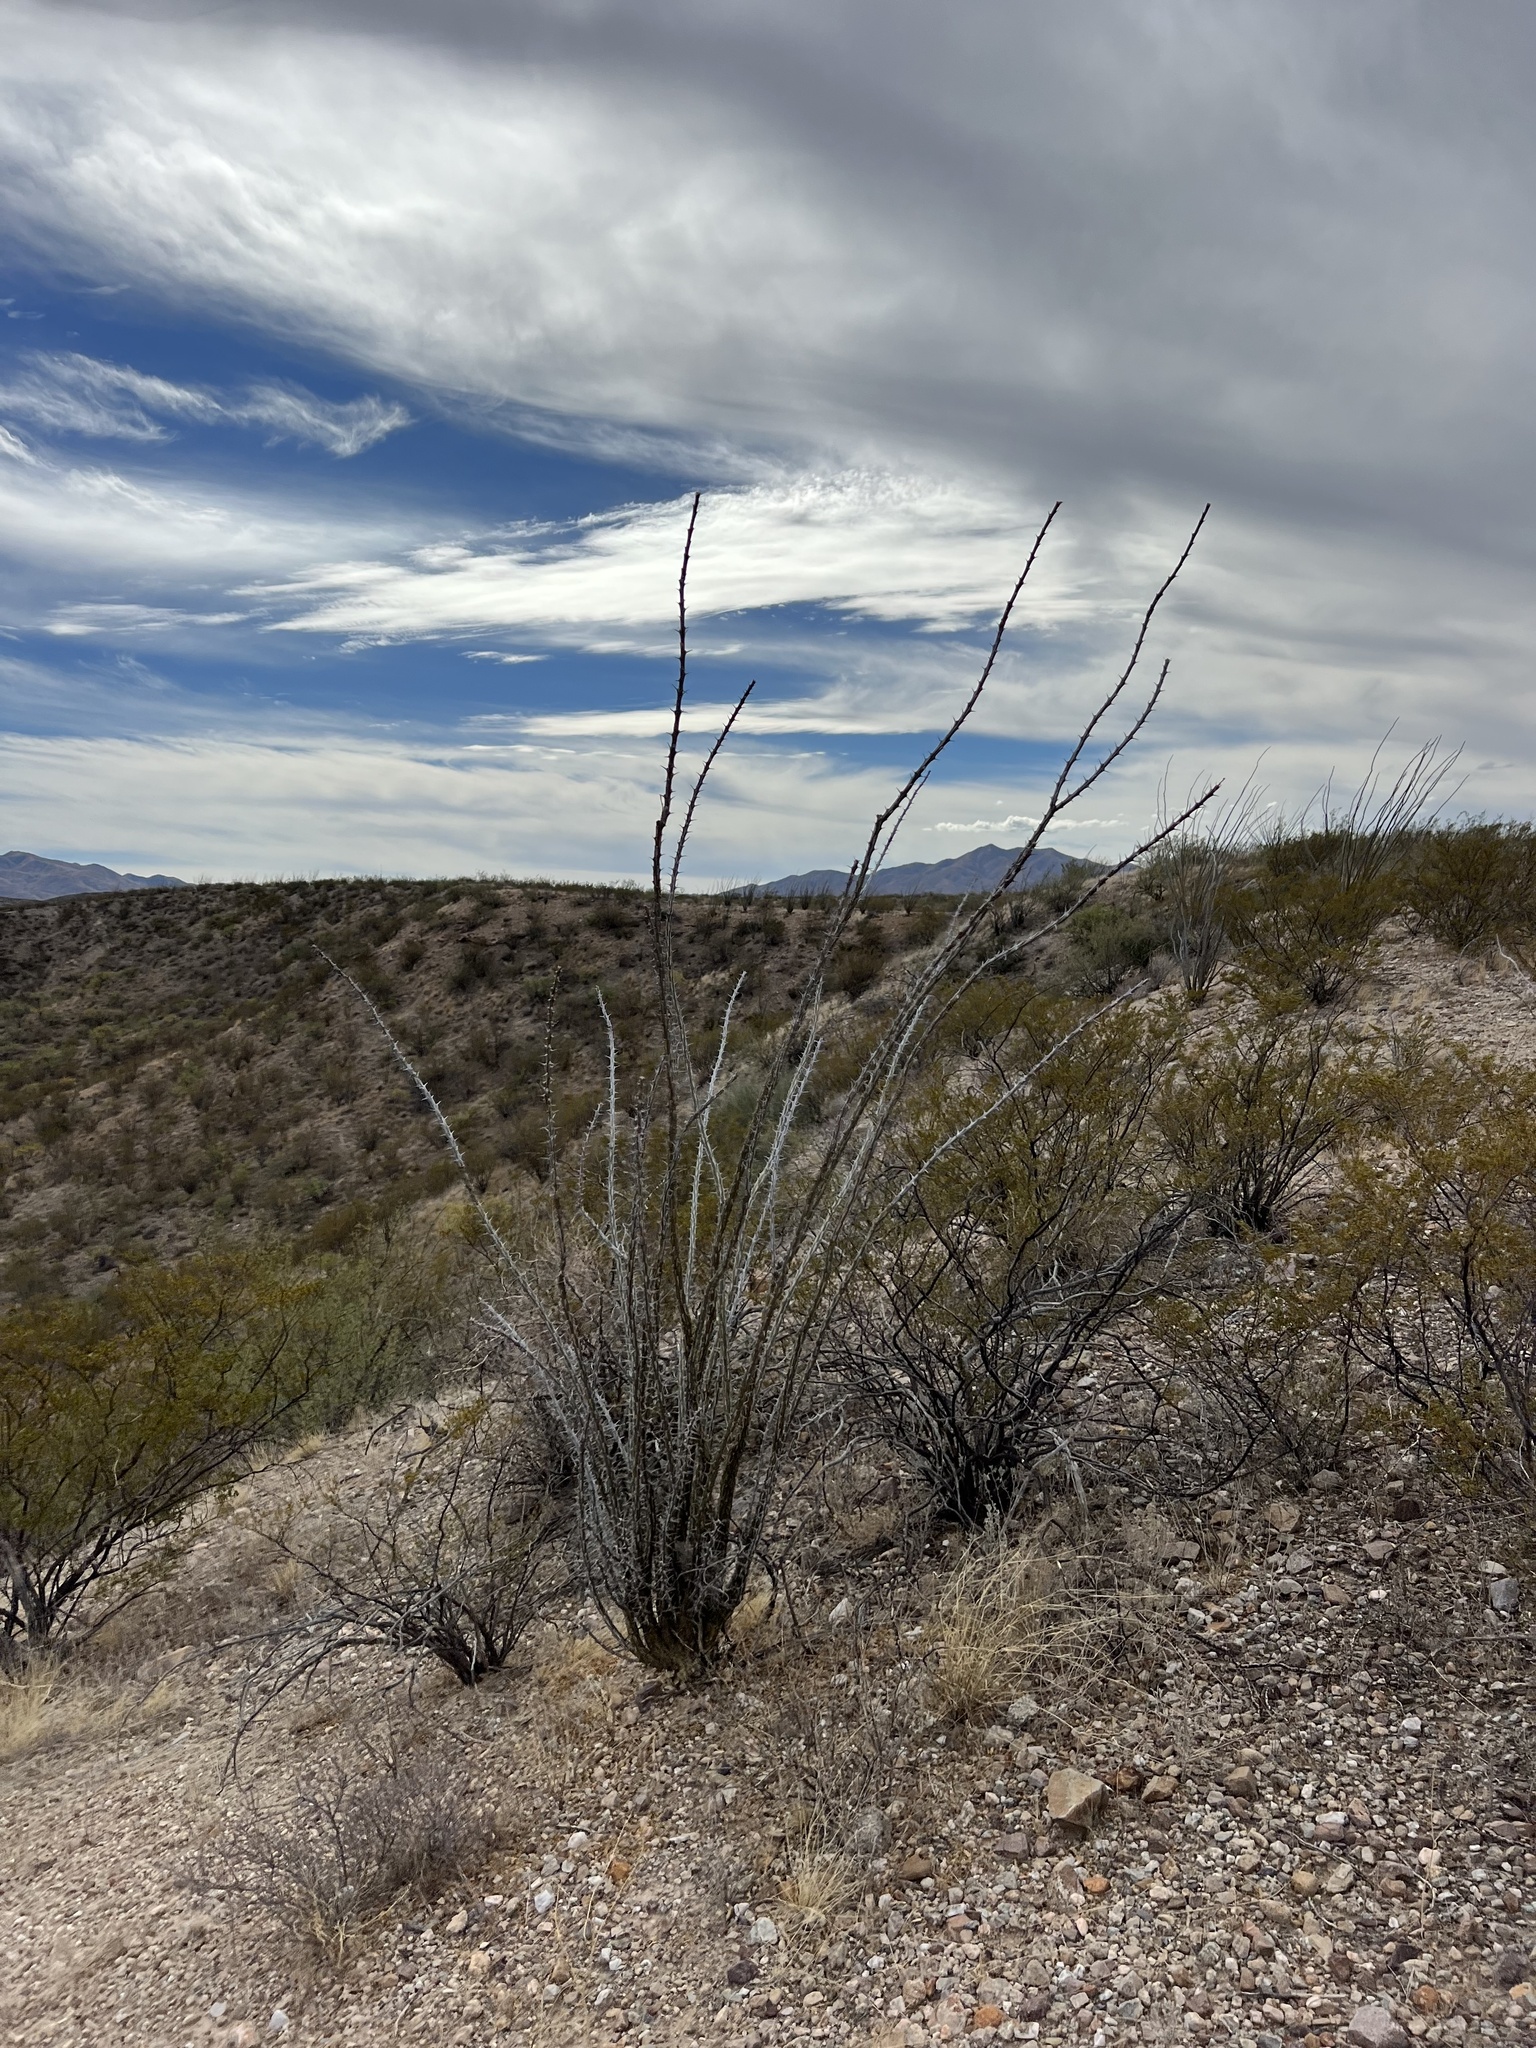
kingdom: Plantae
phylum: Tracheophyta
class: Magnoliopsida
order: Ericales
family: Fouquieriaceae
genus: Fouquieria
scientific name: Fouquieria splendens
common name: Vine-cactus
